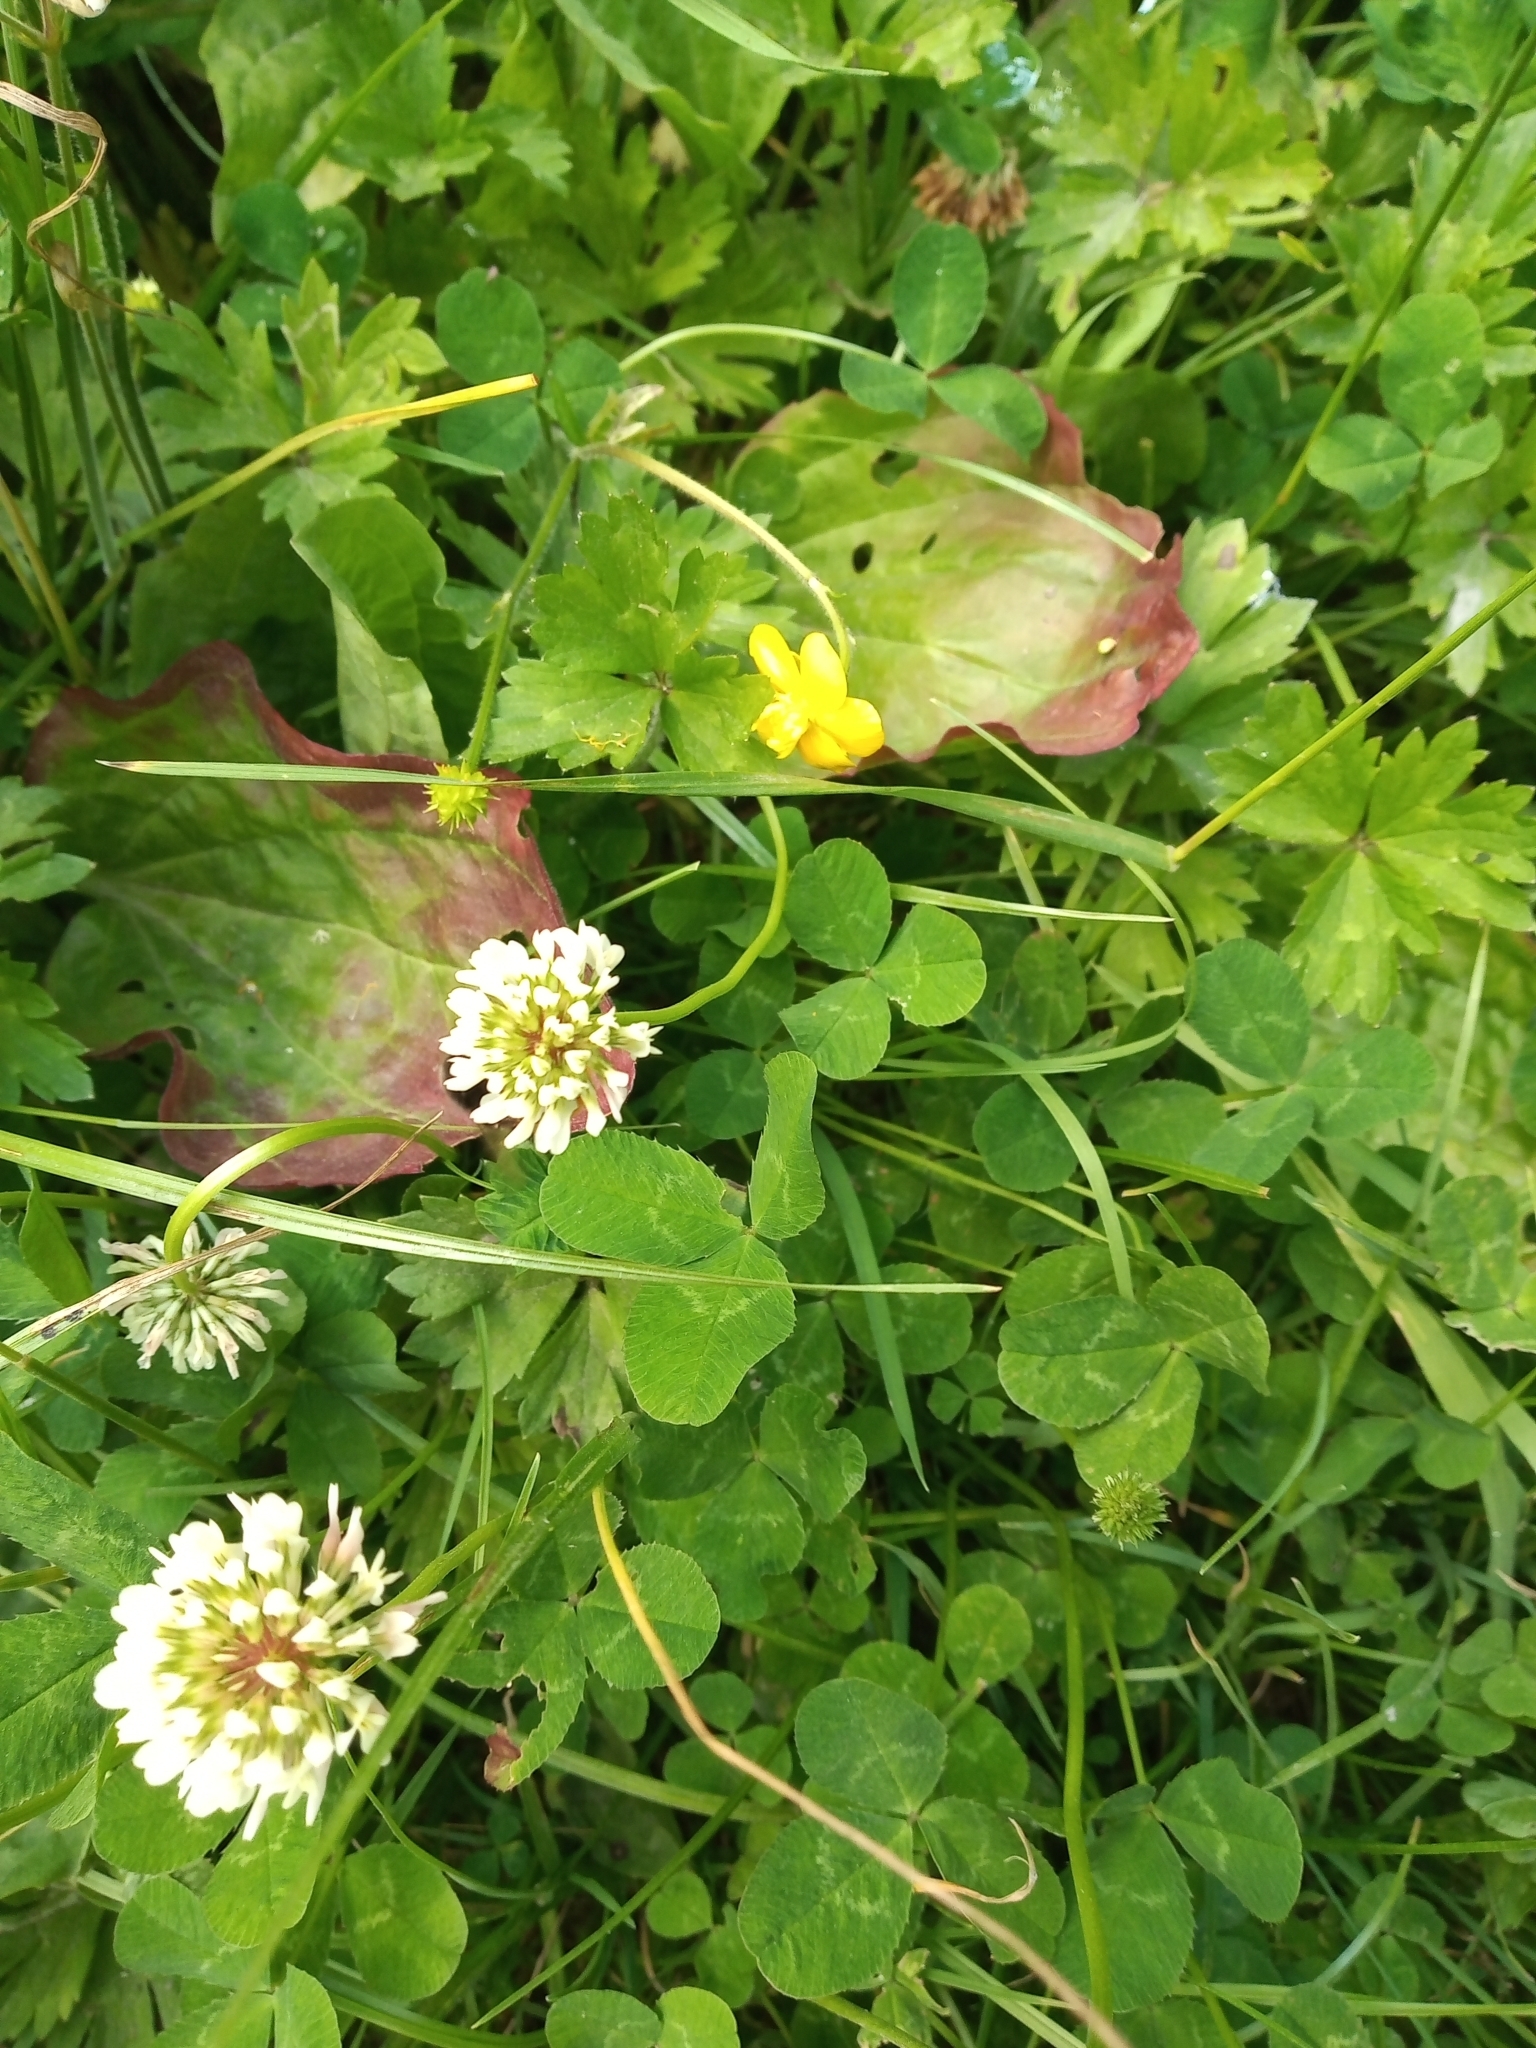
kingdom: Plantae
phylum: Tracheophyta
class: Magnoliopsida
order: Fabales
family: Fabaceae
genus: Trifolium
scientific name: Trifolium repens
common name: White clover
